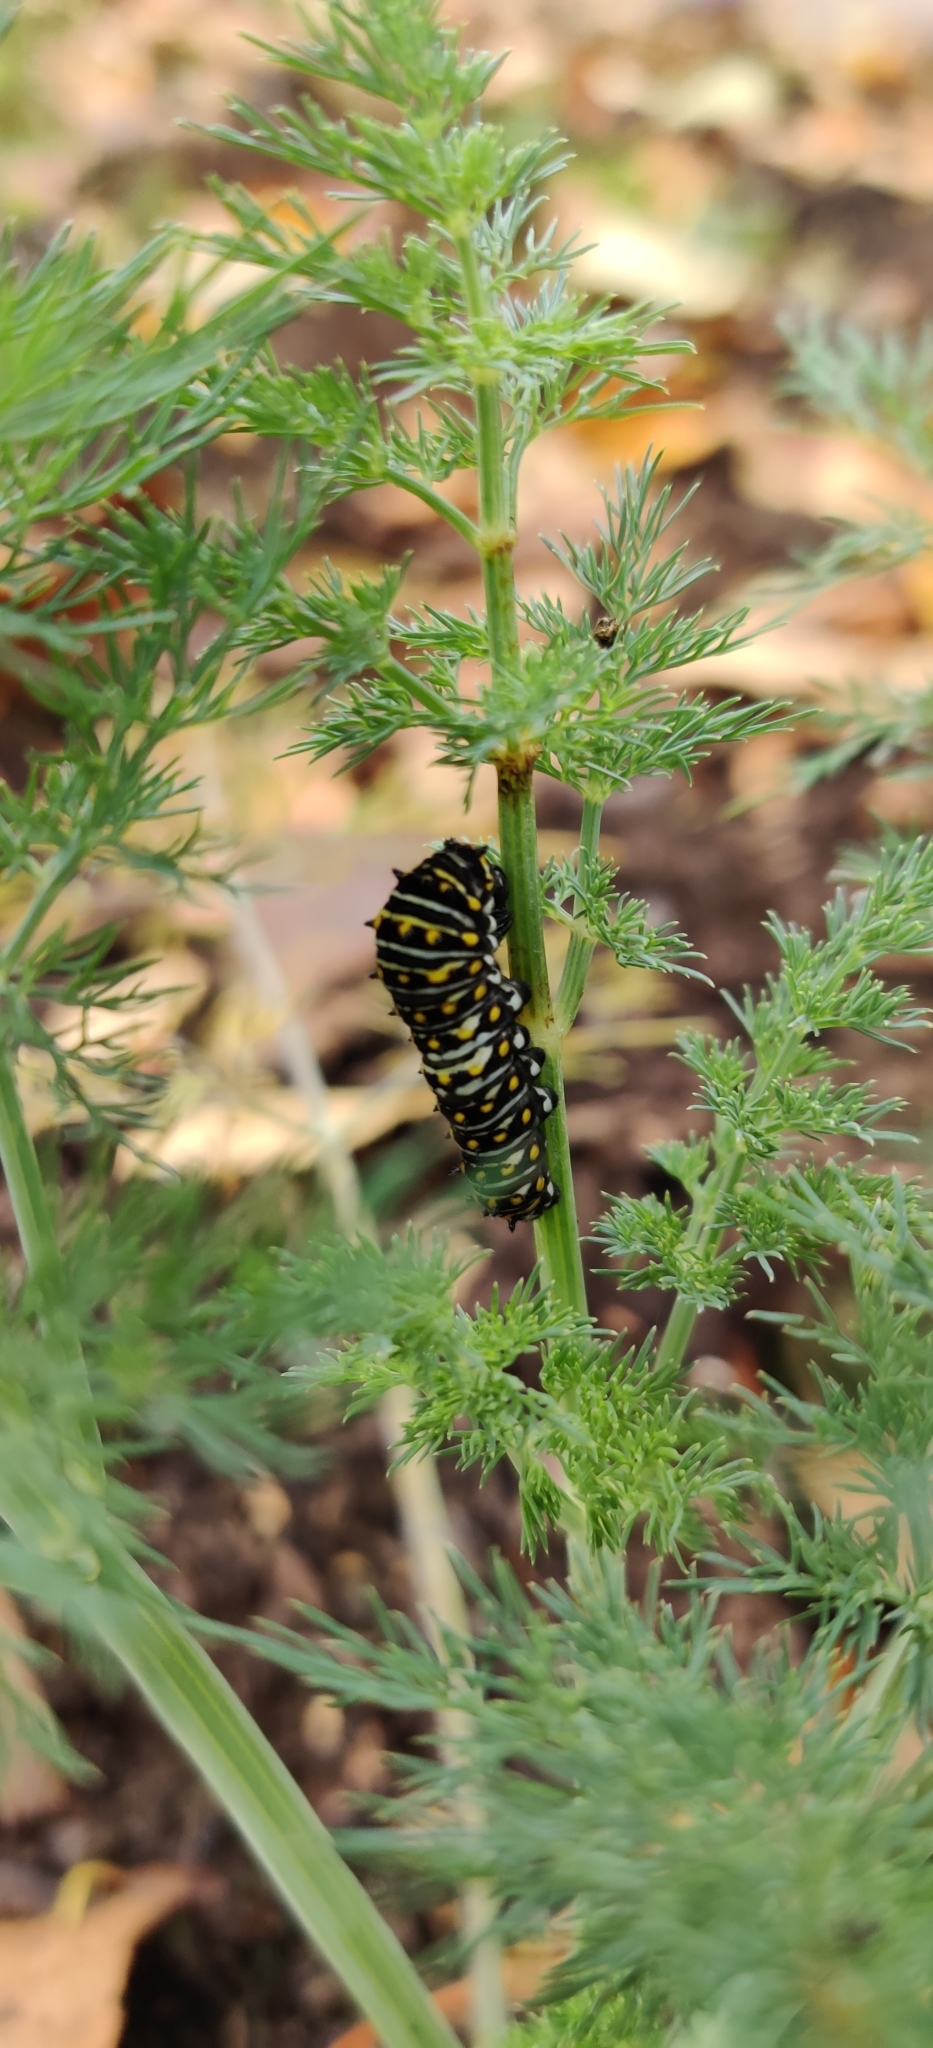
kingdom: Animalia
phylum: Arthropoda
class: Insecta
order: Lepidoptera
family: Papilionidae
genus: Papilio
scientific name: Papilio polyxenes
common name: Black swallowtail
